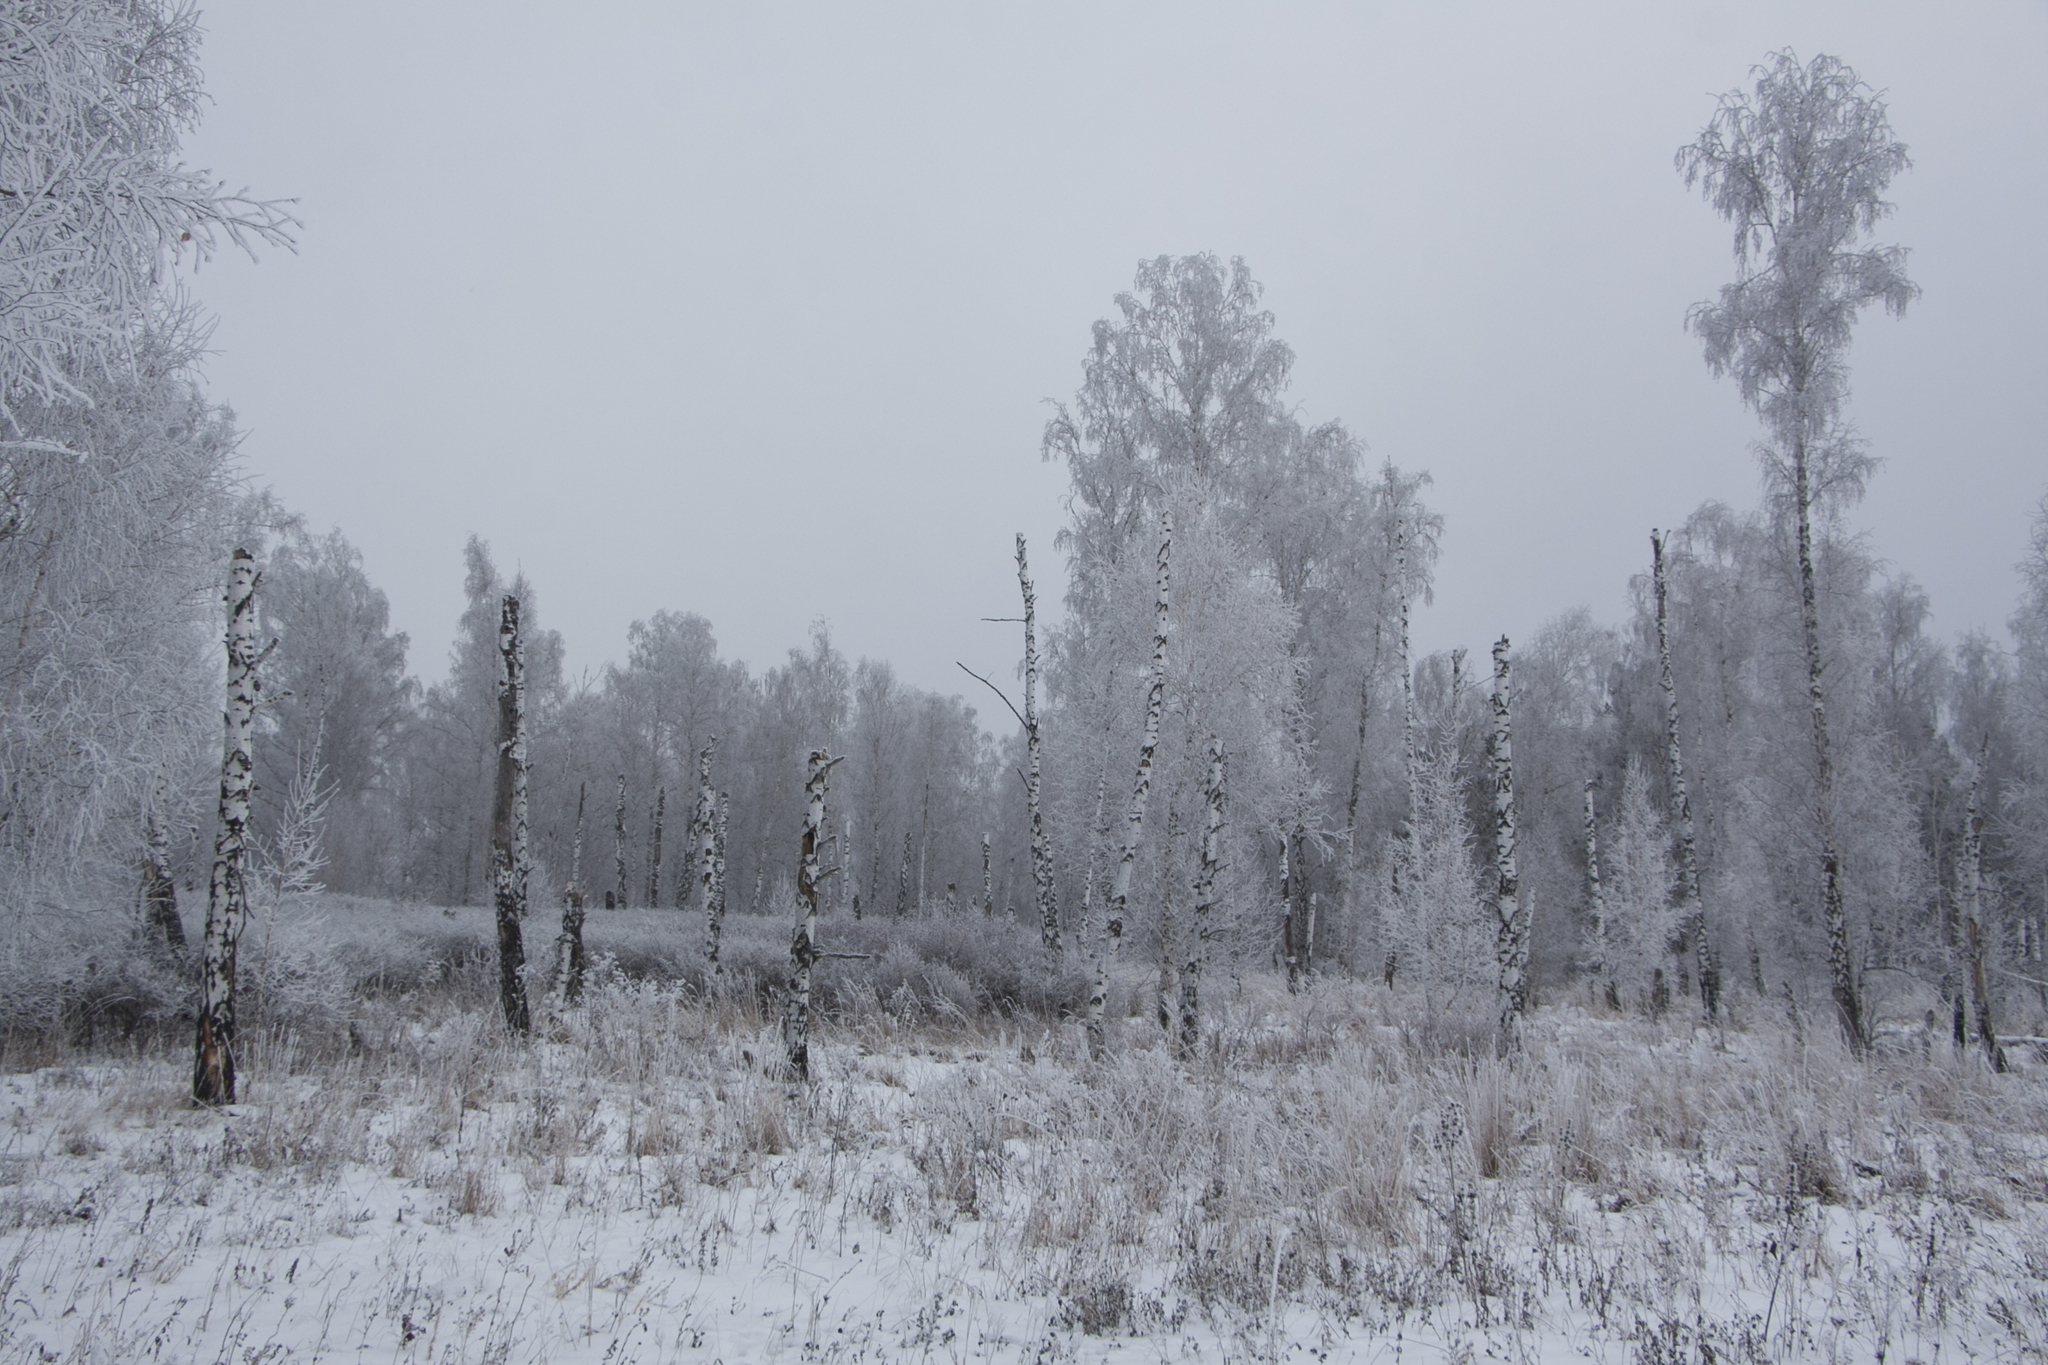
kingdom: Plantae
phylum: Tracheophyta
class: Magnoliopsida
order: Fagales
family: Betulaceae
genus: Betula
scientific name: Betula pendula
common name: Silver birch
